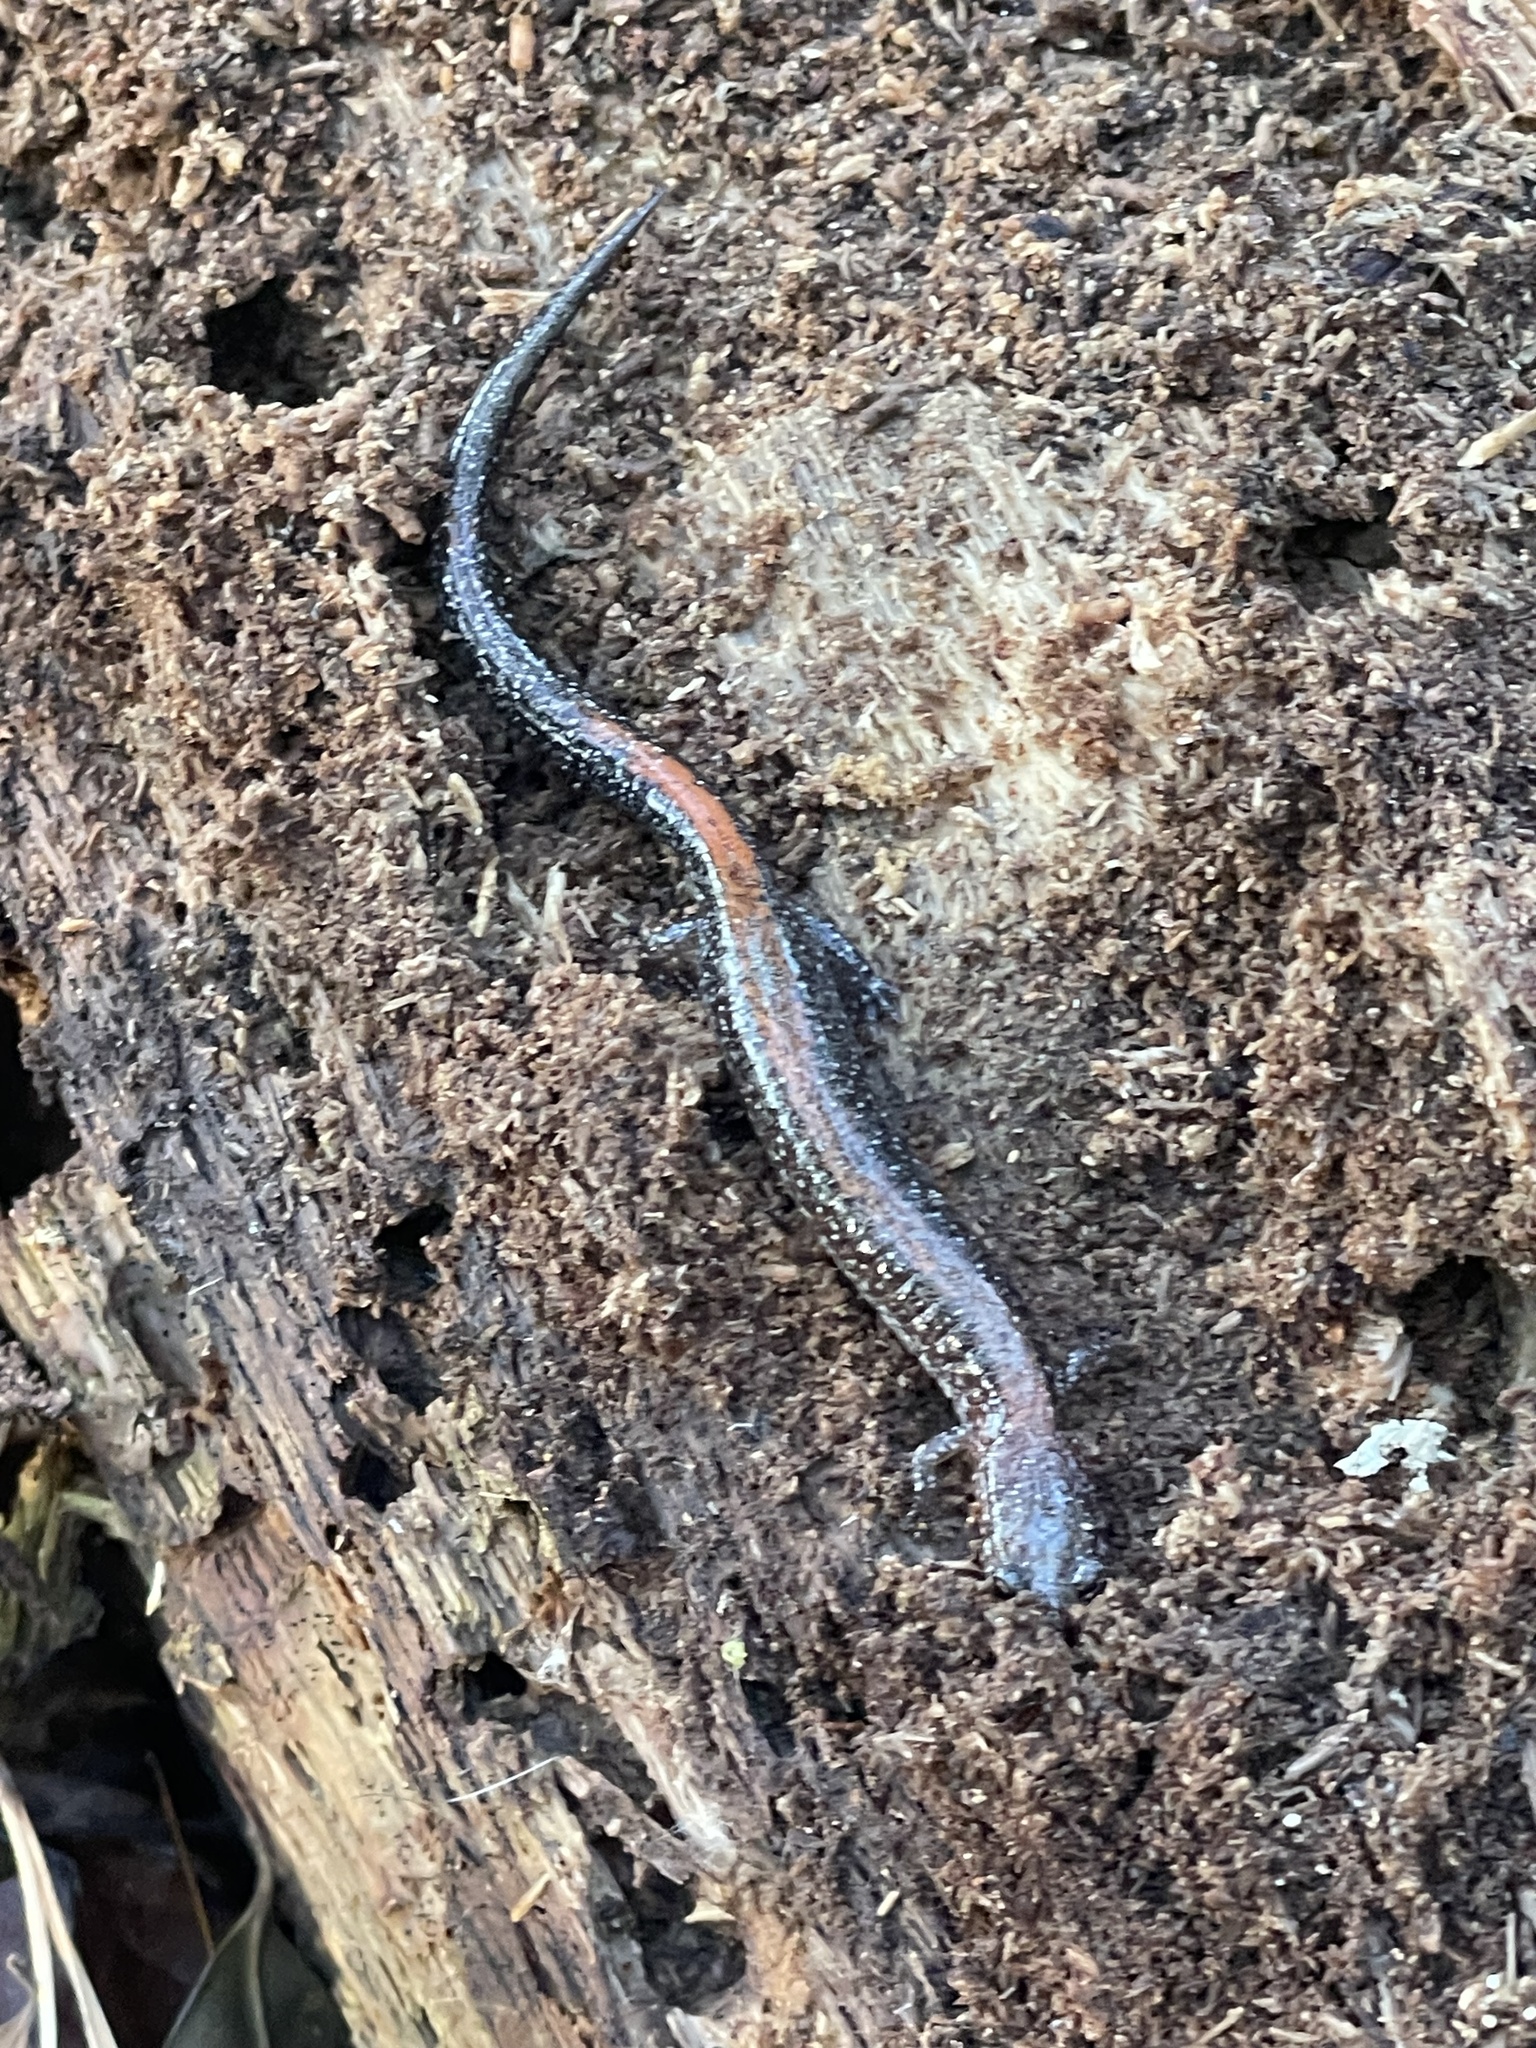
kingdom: Animalia
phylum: Chordata
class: Amphibia
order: Caudata
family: Plethodontidae
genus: Plethodon
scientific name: Plethodon cinereus
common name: Redback salamander
